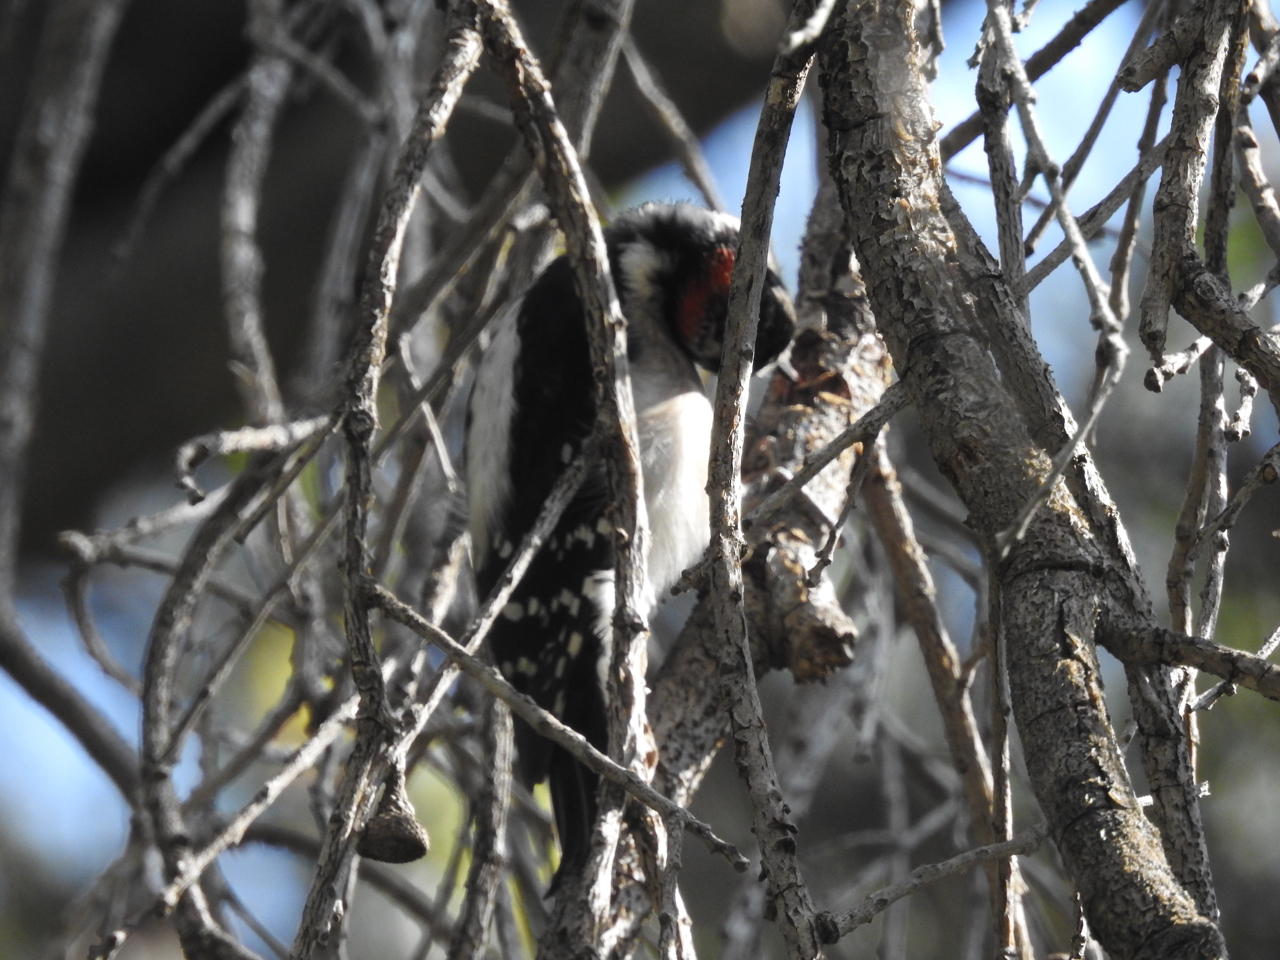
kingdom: Animalia
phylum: Chordata
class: Aves
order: Piciformes
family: Picidae
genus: Dryobates
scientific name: Dryobates pubescens
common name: Downy woodpecker
